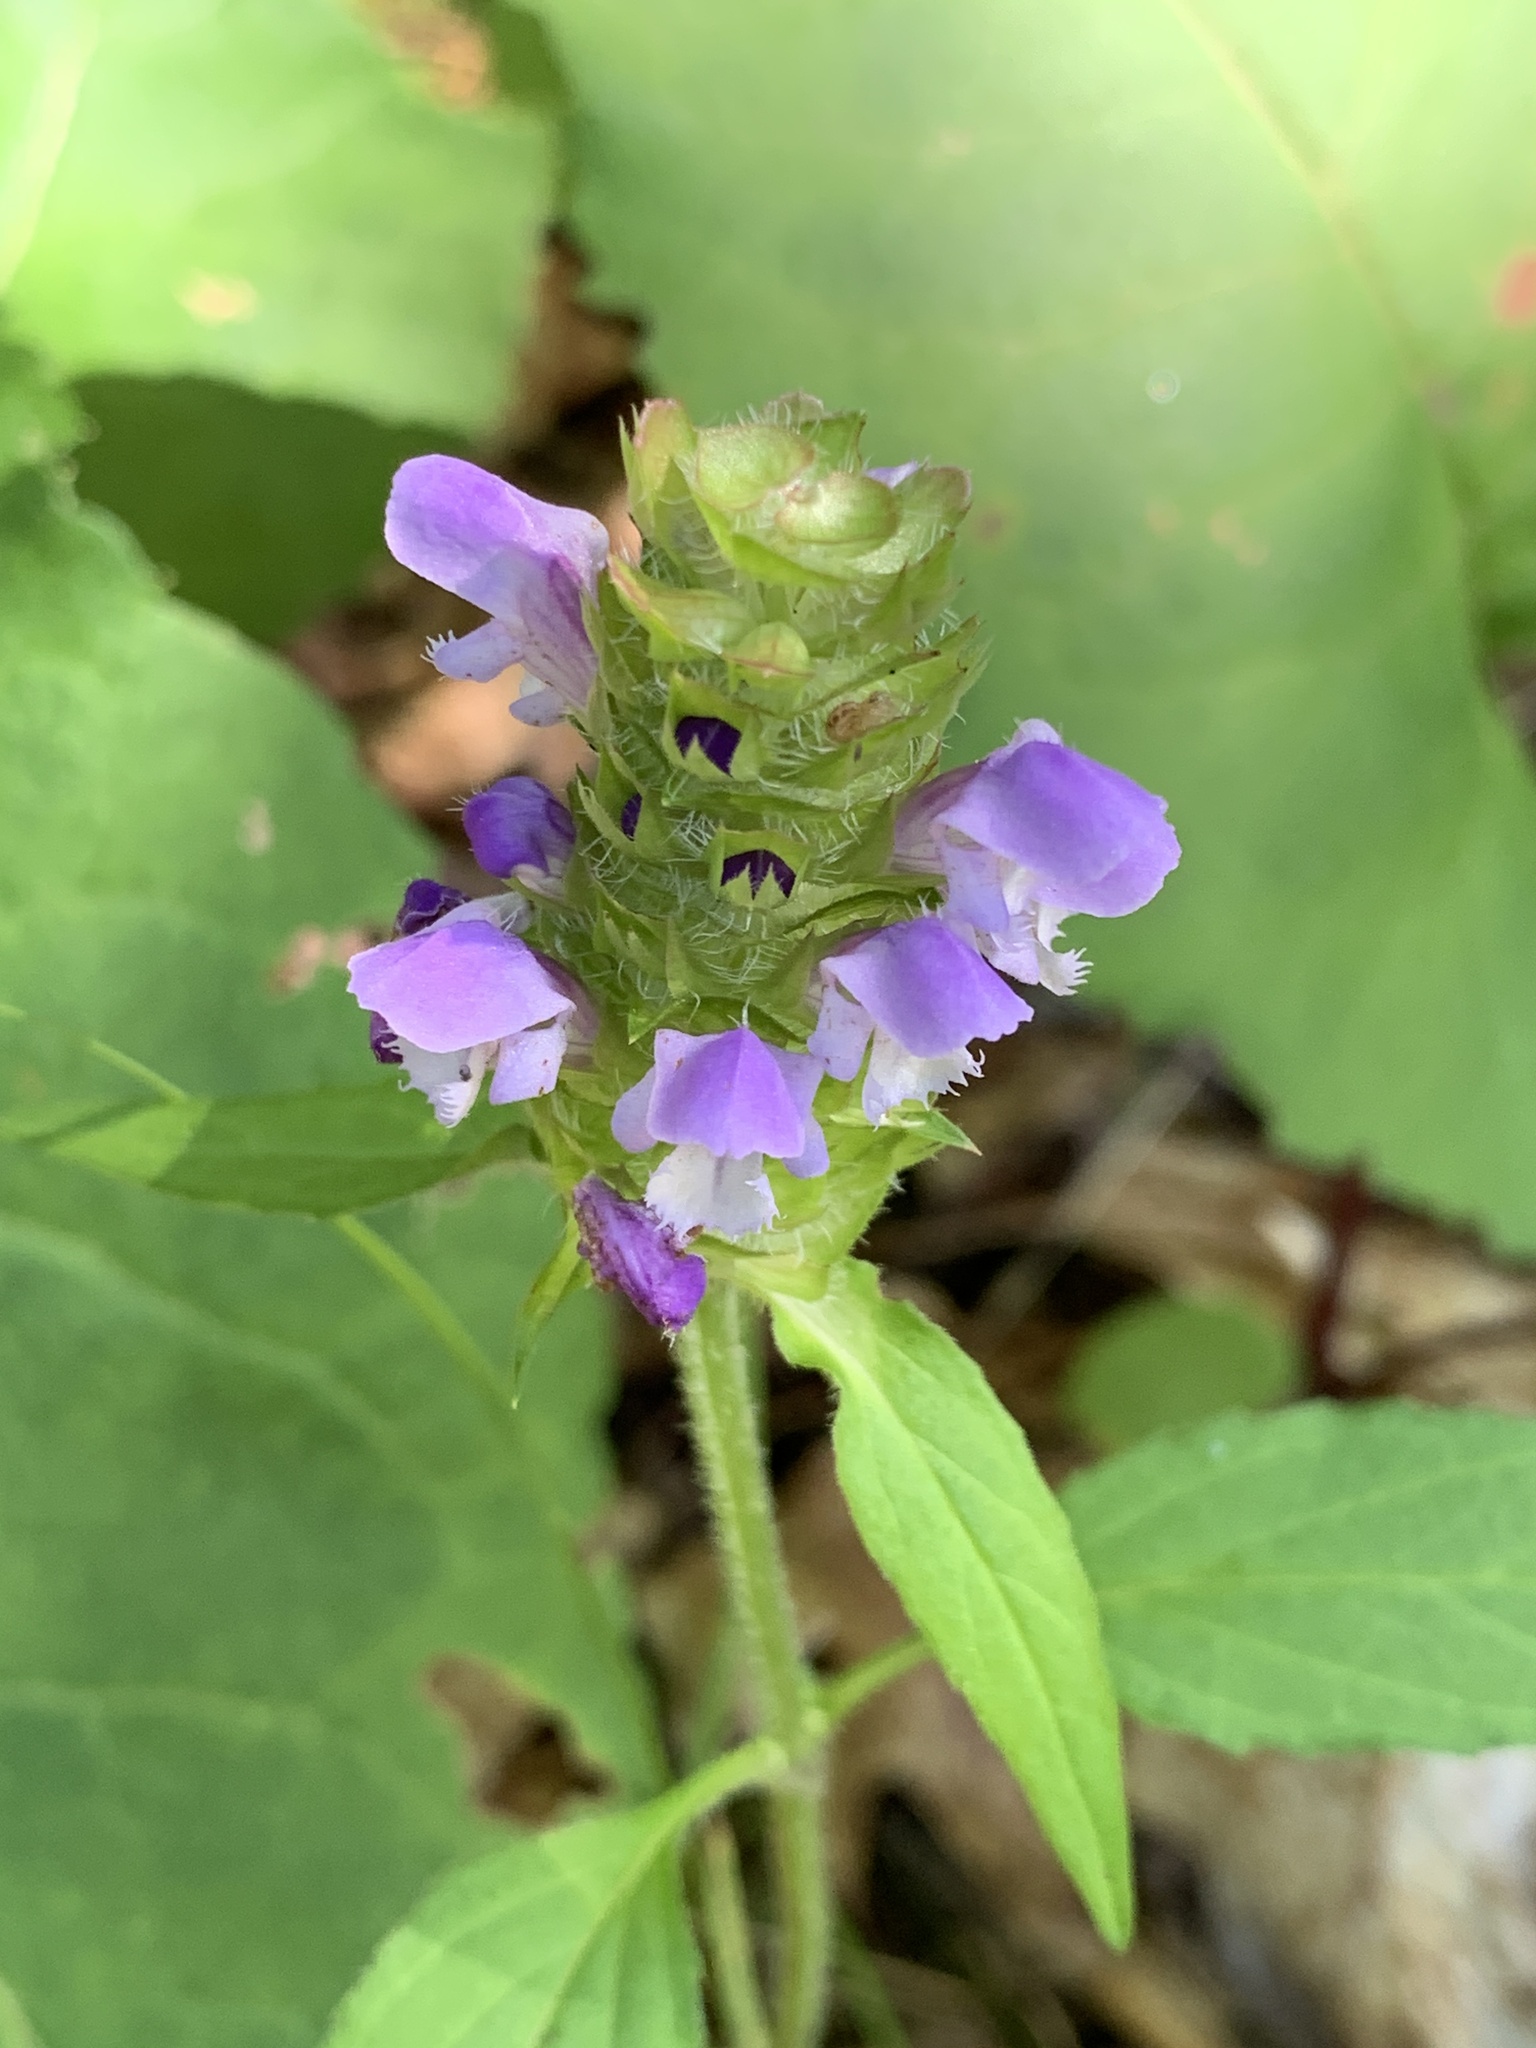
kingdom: Plantae
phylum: Tracheophyta
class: Magnoliopsida
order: Lamiales
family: Lamiaceae
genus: Prunella
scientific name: Prunella vulgaris
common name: Heal-all
